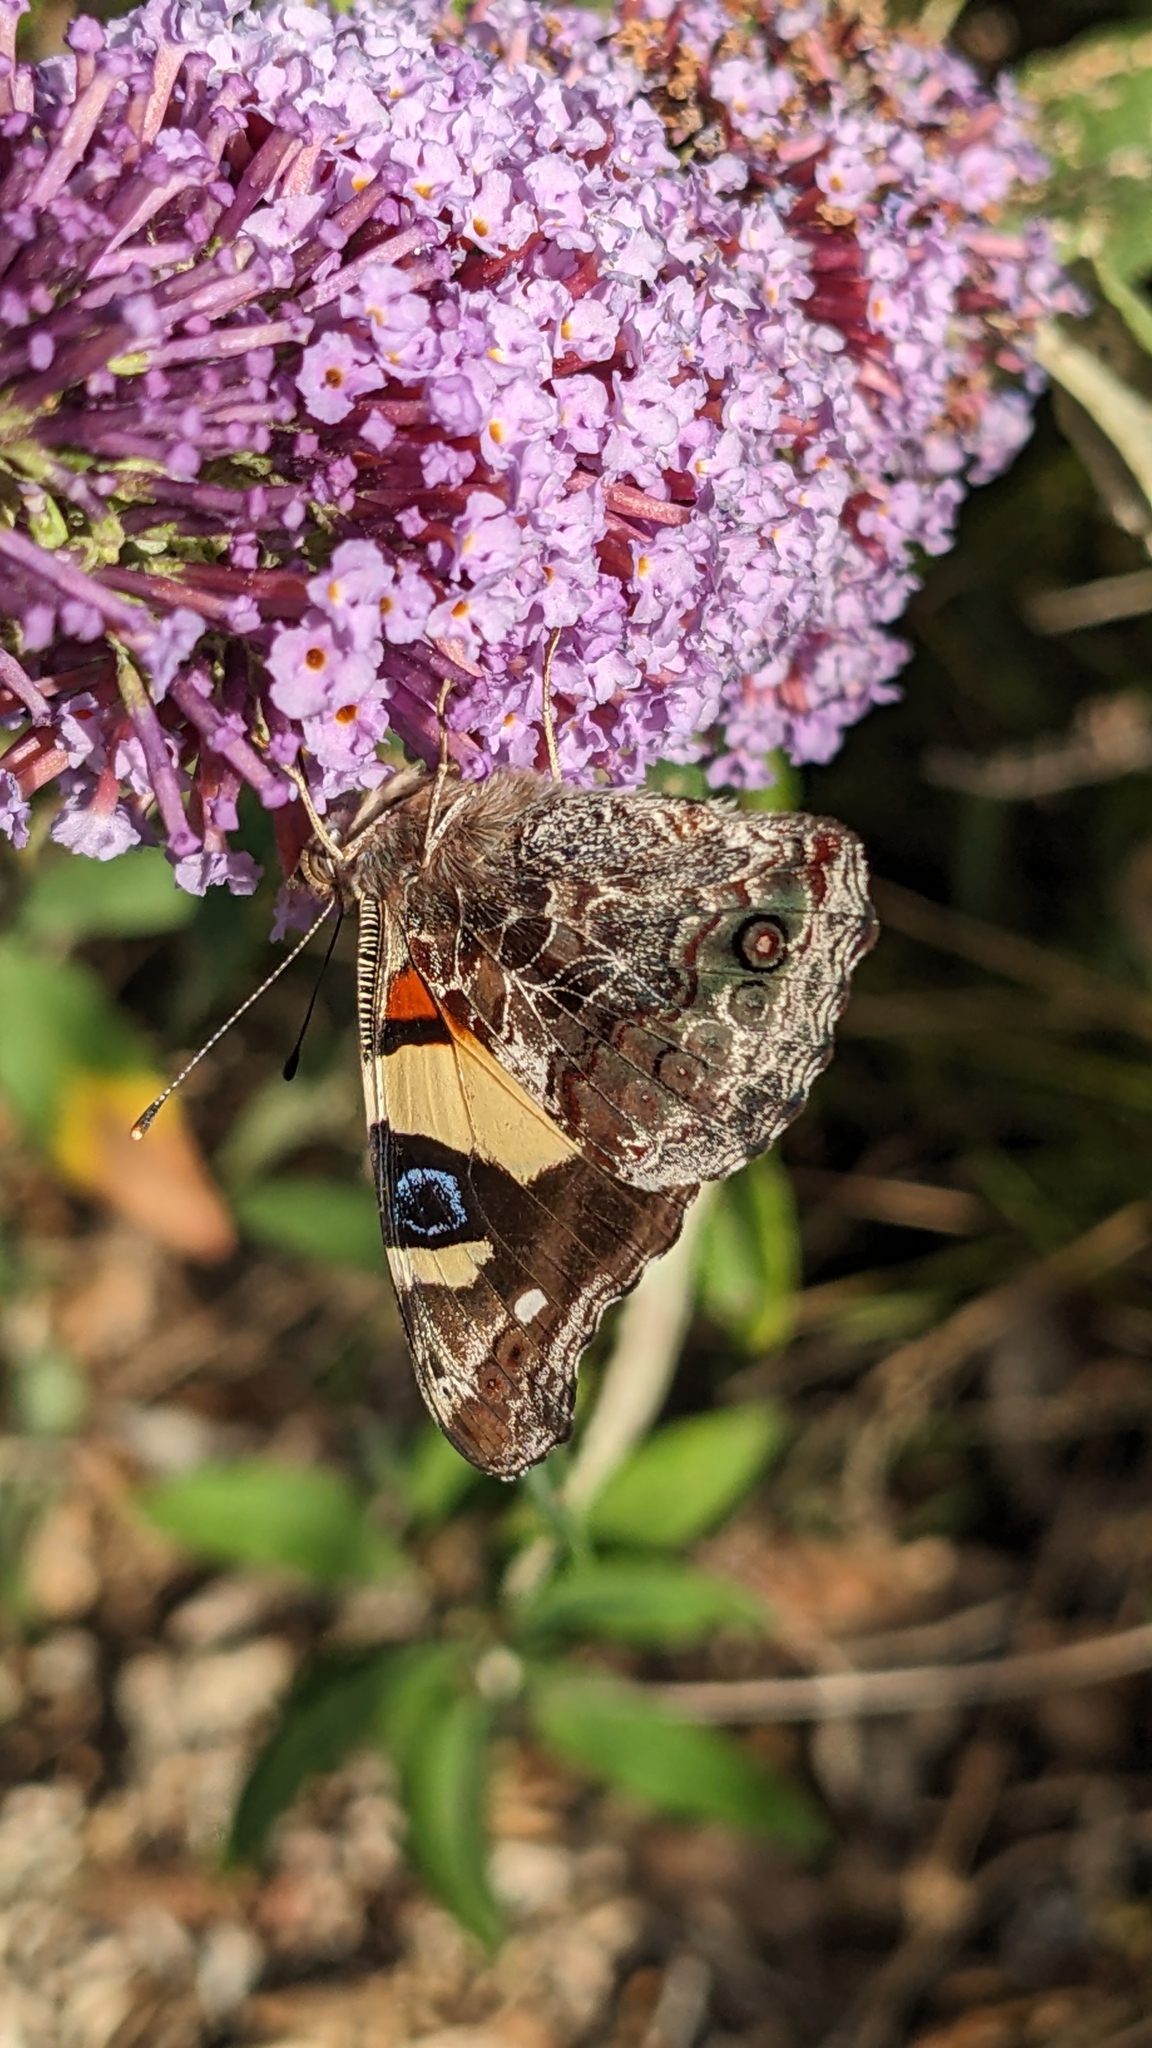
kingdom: Animalia
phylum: Arthropoda
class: Insecta
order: Lepidoptera
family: Nymphalidae
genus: Vanessa
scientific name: Vanessa itea
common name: Yellow admiral
